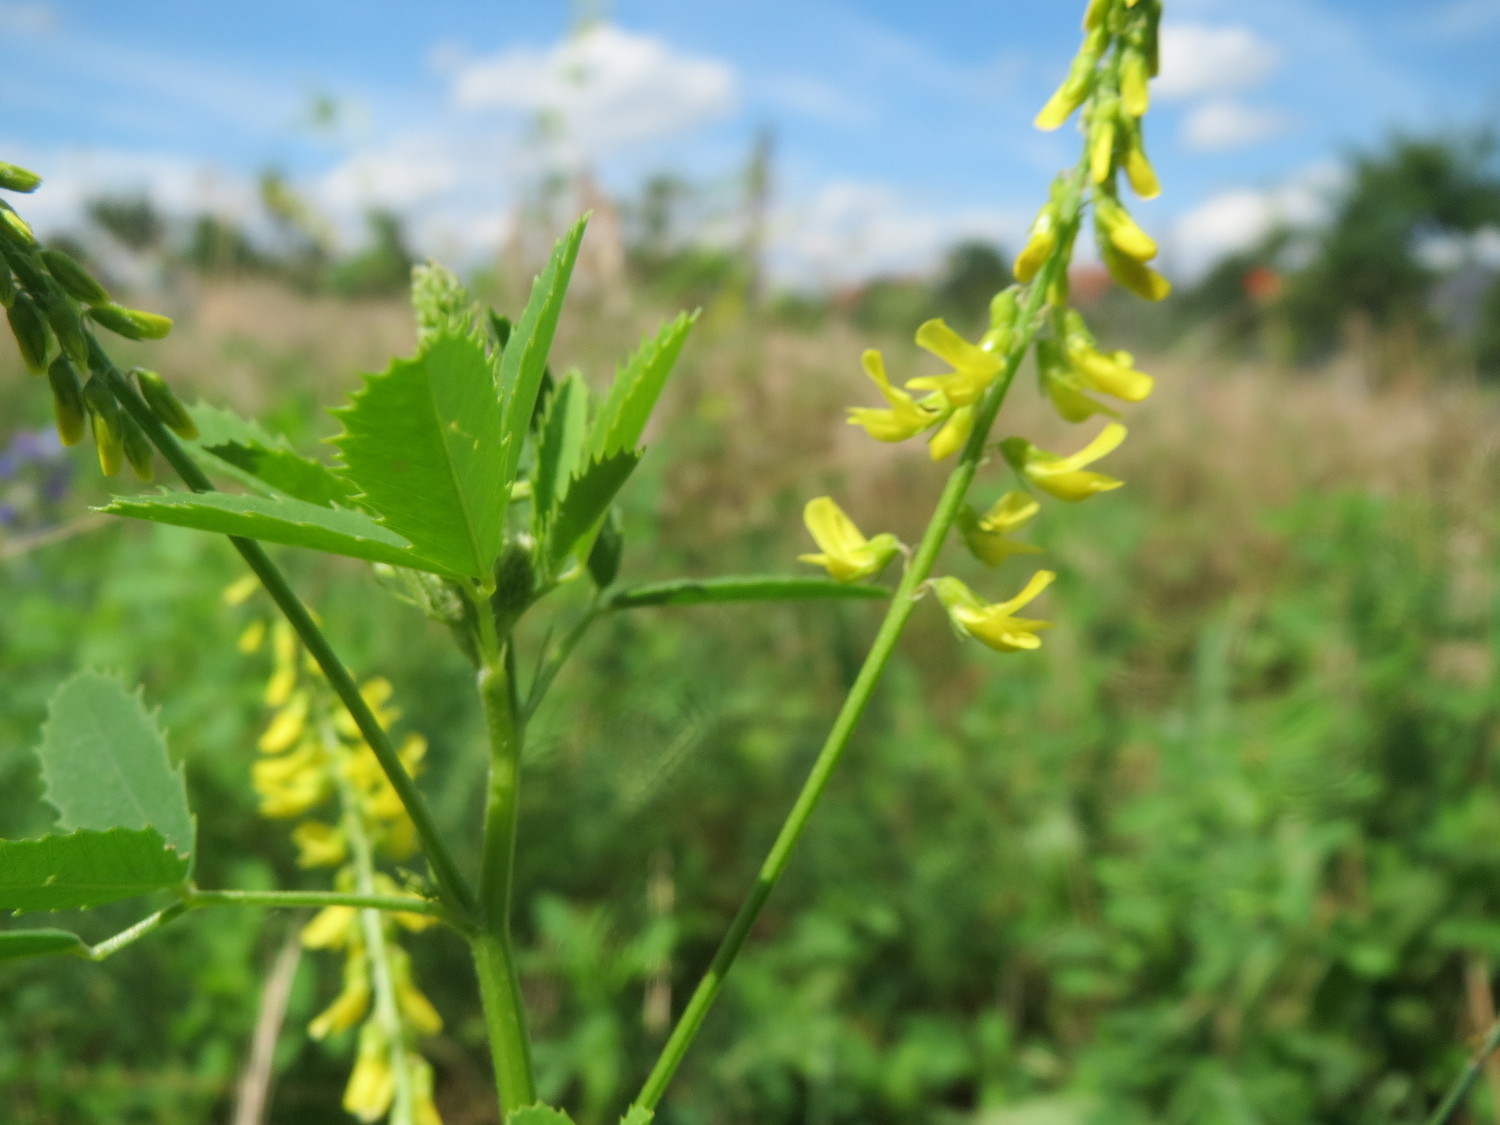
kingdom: Plantae
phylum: Tracheophyta
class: Magnoliopsida
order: Fabales
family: Fabaceae
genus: Melilotus
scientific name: Melilotus officinalis
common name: Sweetclover
